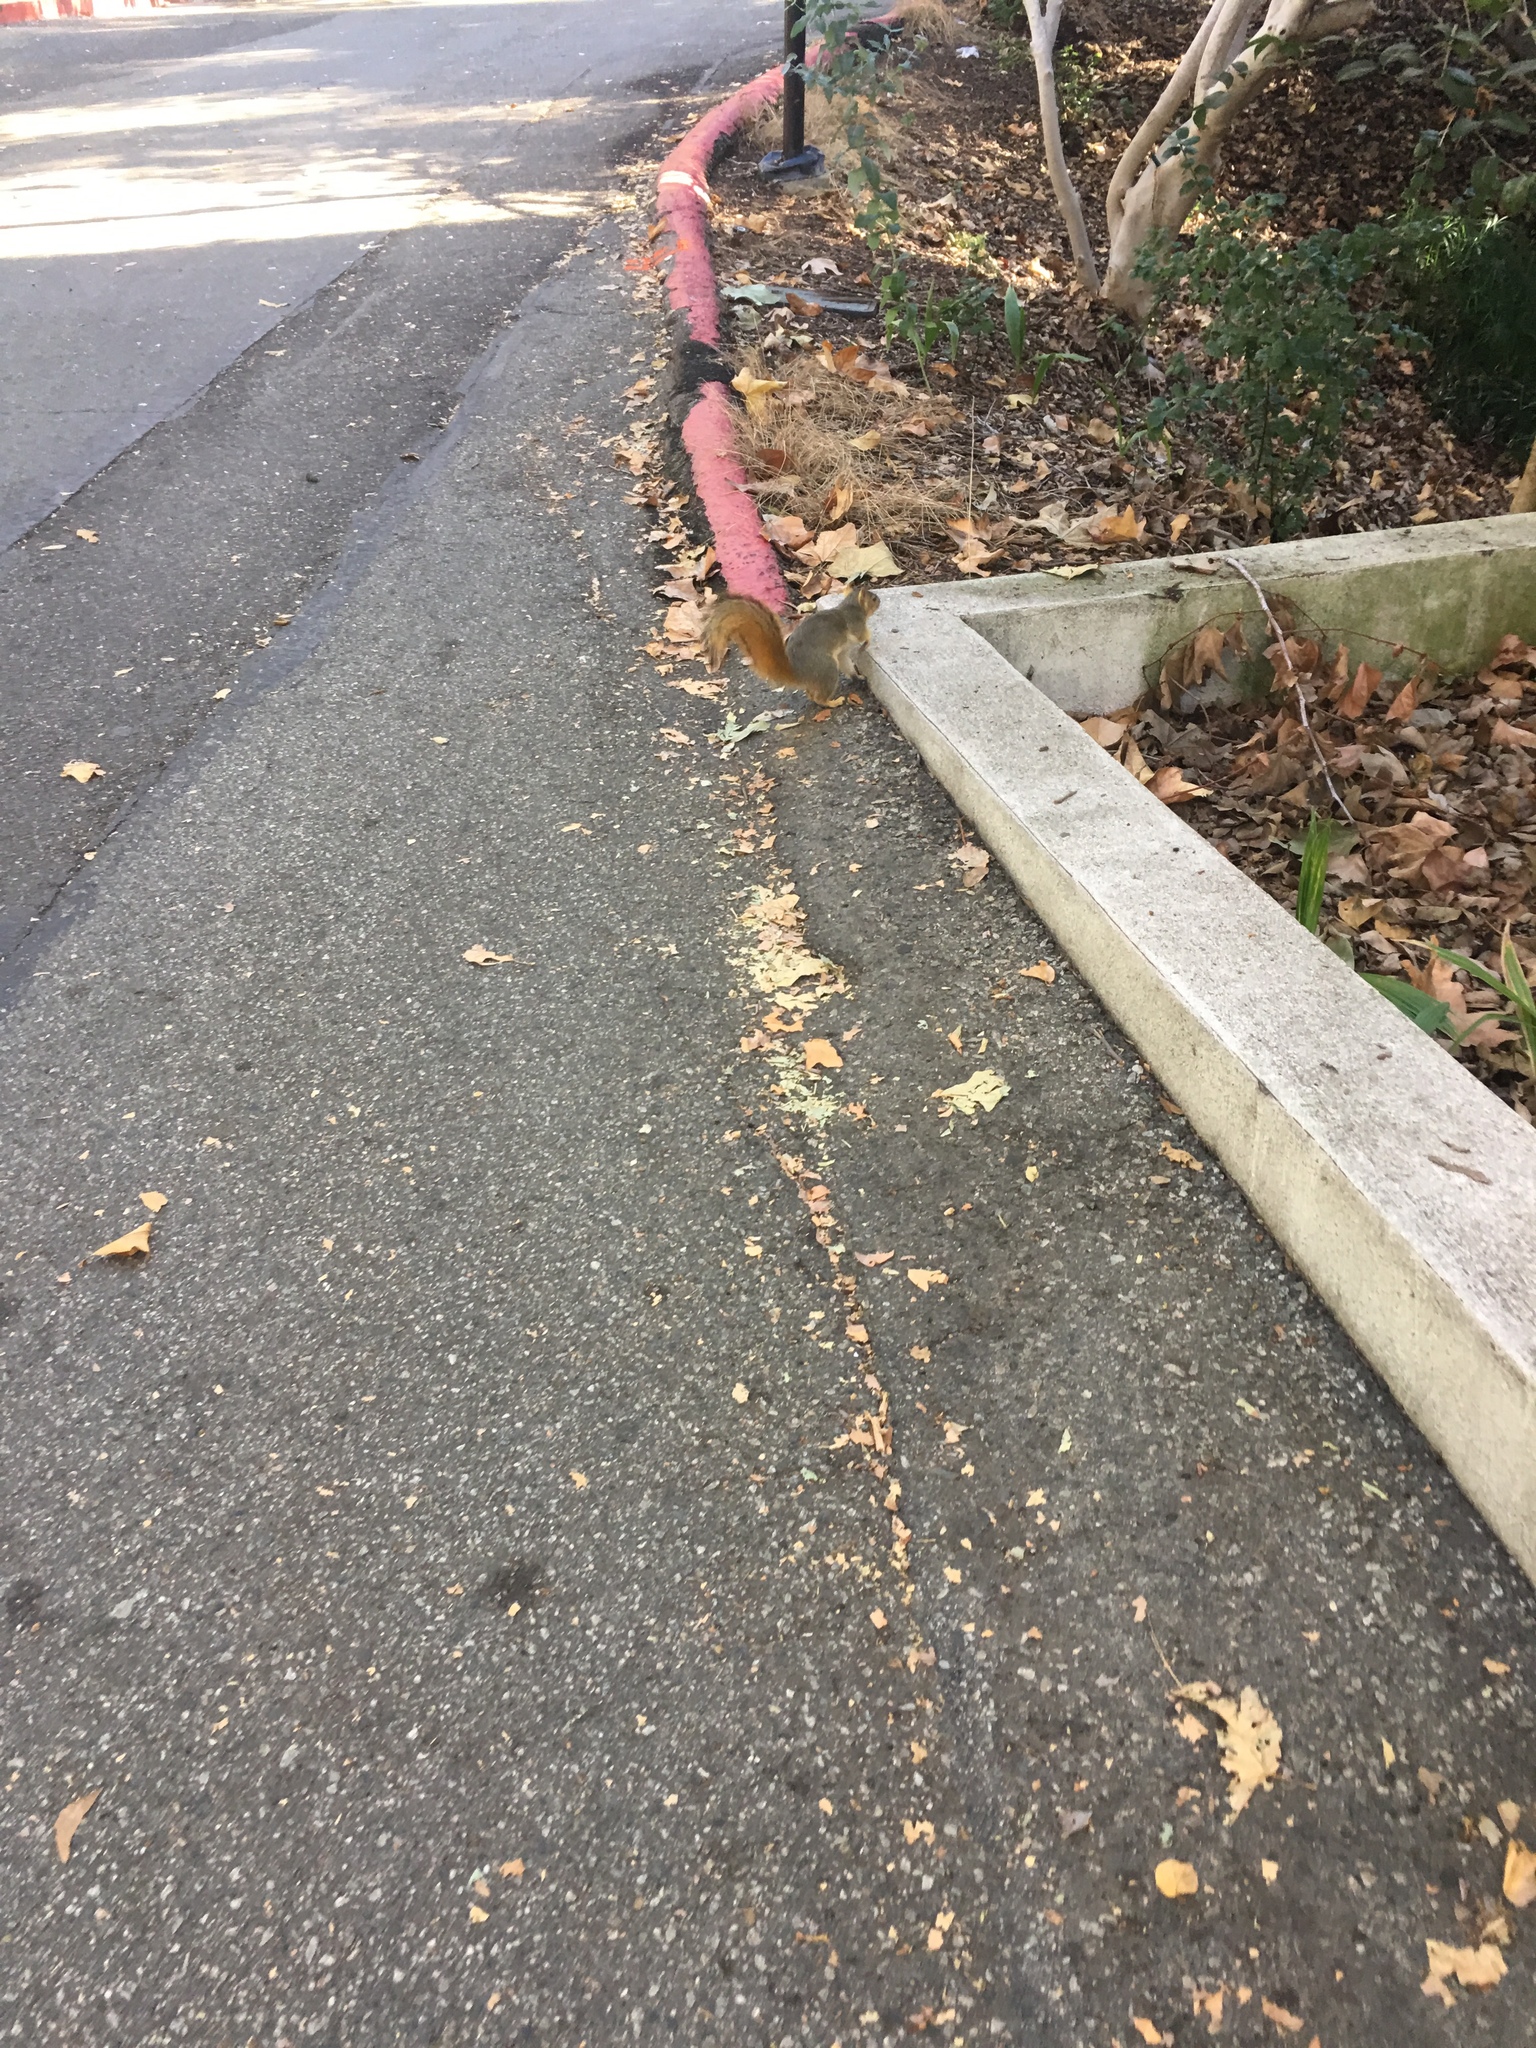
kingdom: Animalia
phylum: Chordata
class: Mammalia
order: Rodentia
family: Sciuridae
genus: Sciurus
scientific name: Sciurus niger
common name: Fox squirrel
